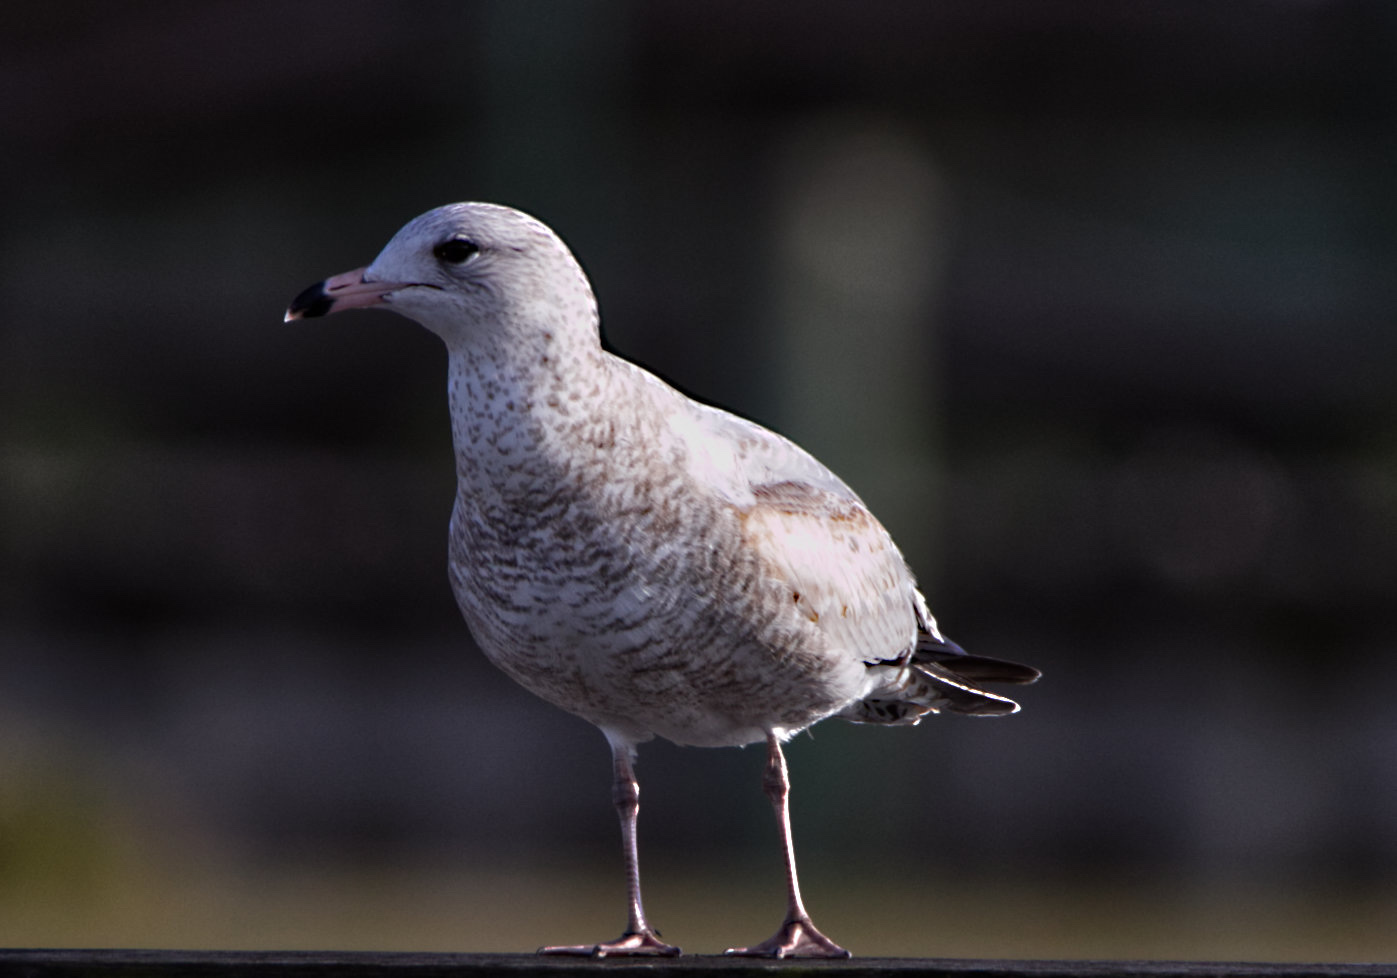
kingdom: Animalia
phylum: Chordata
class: Aves
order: Charadriiformes
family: Laridae
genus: Larus
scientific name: Larus delawarensis
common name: Ring-billed gull
